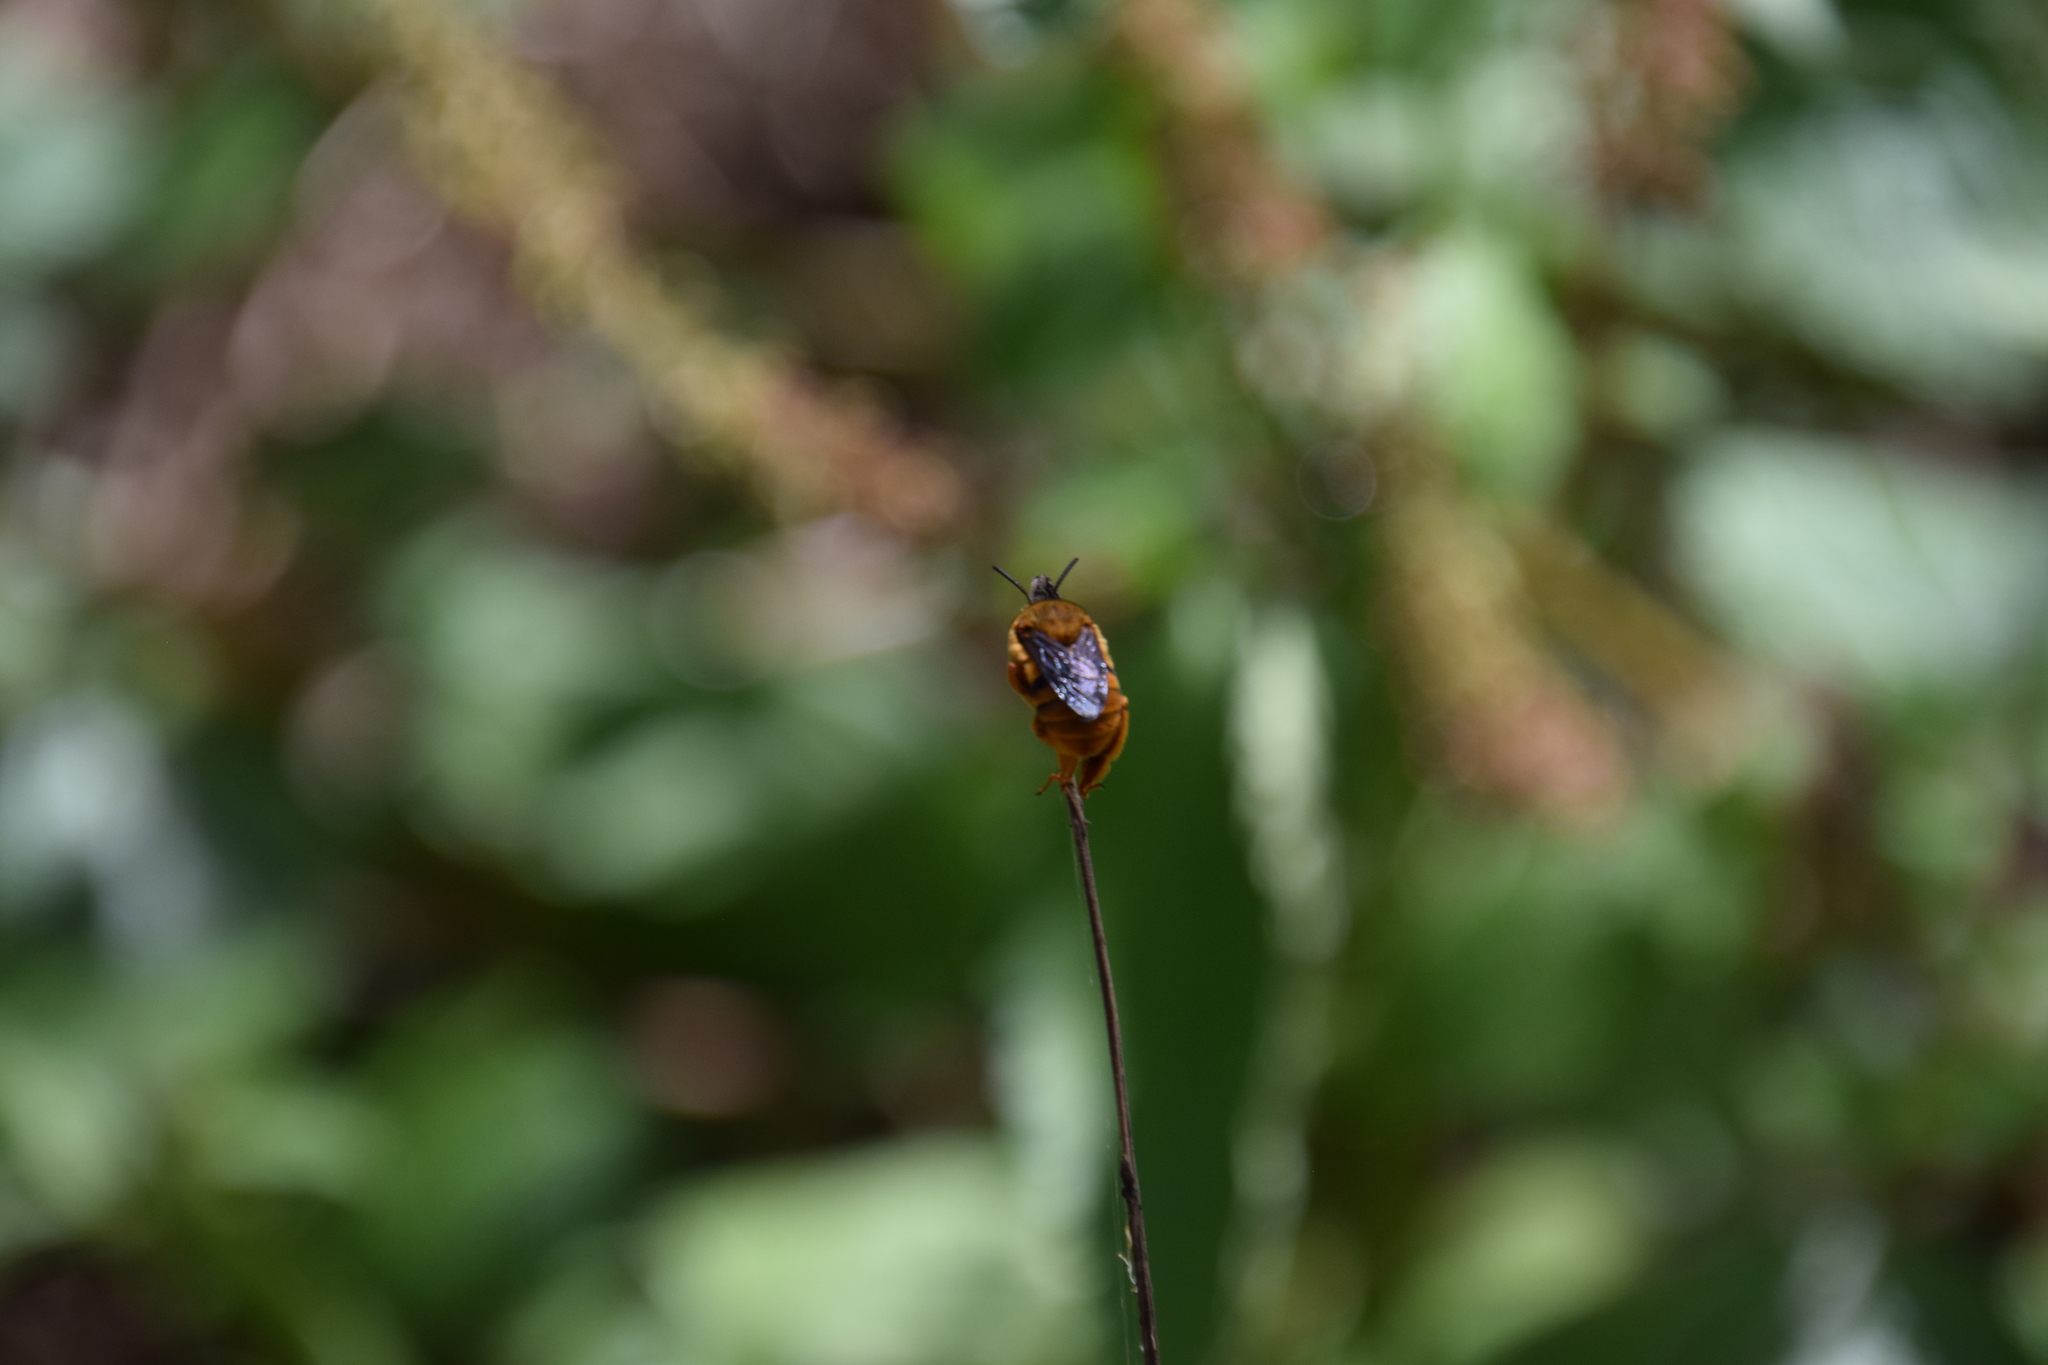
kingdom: Animalia
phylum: Arthropoda
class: Insecta
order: Hymenoptera
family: Apidae
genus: Amegilla
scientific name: Amegilla bombiformis
